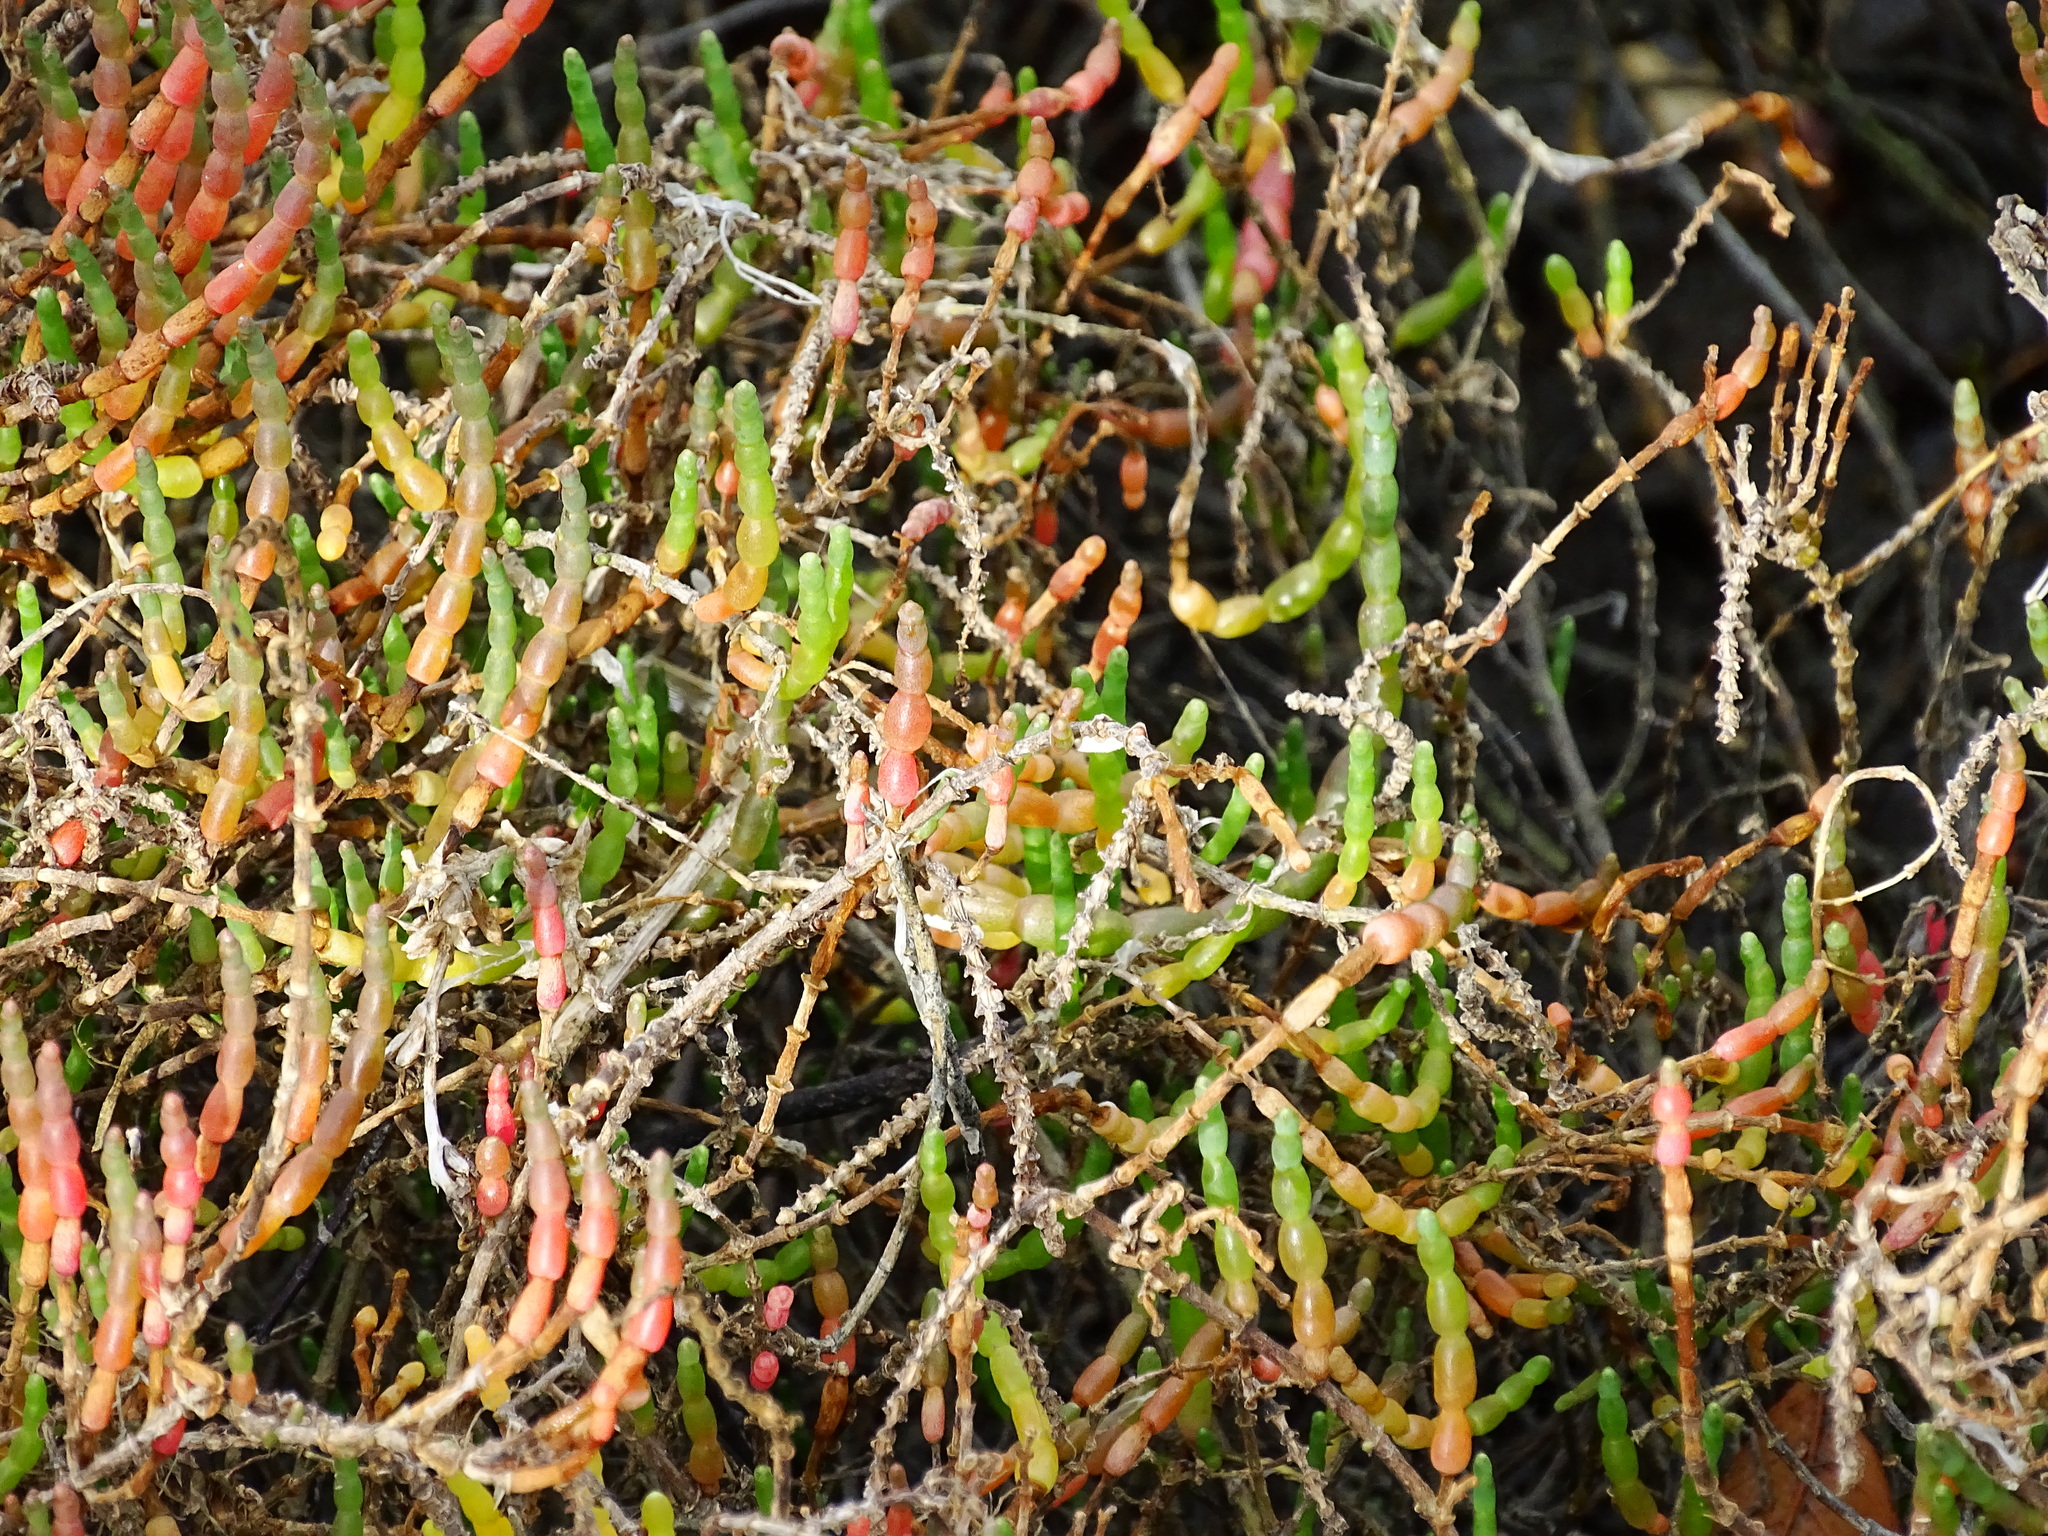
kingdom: Plantae
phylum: Tracheophyta
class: Magnoliopsida
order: Caryophyllales
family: Amaranthaceae
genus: Salicornia
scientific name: Salicornia pacifica
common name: Pacific glasswort
